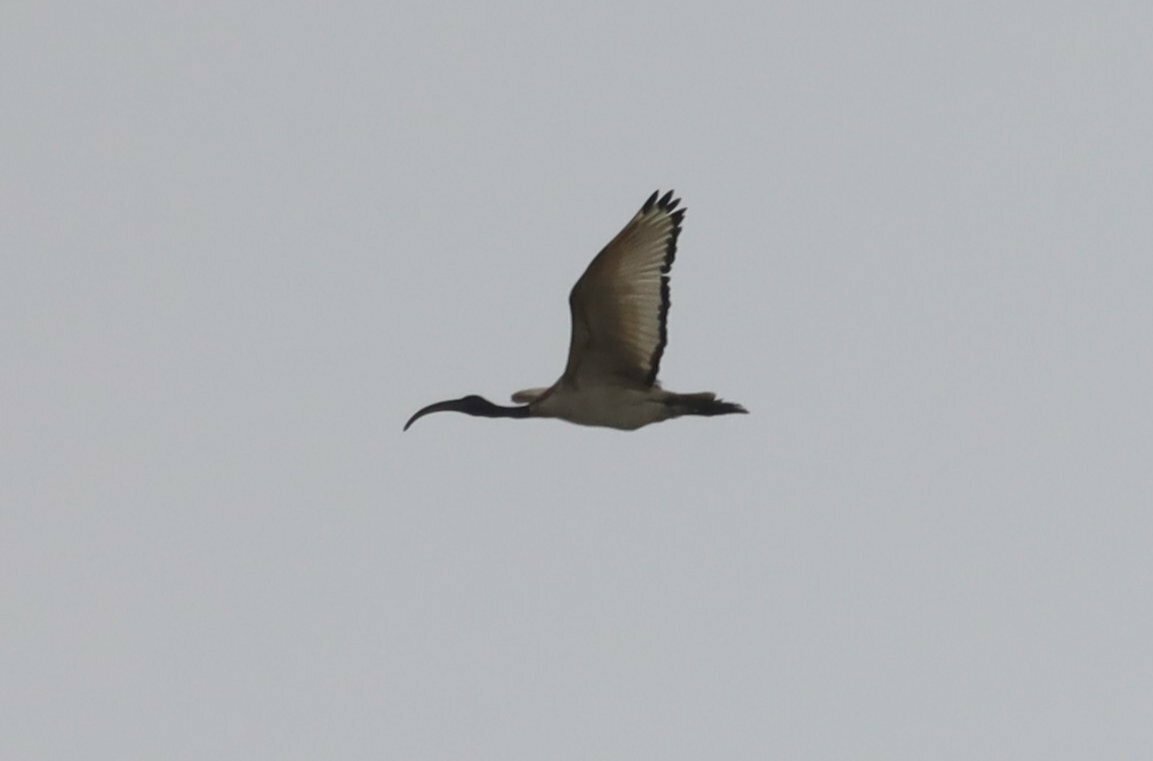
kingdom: Animalia
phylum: Chordata
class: Aves
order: Pelecaniformes
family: Threskiornithidae
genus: Threskiornis
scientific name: Threskiornis aethiopicus
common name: Sacred ibis
